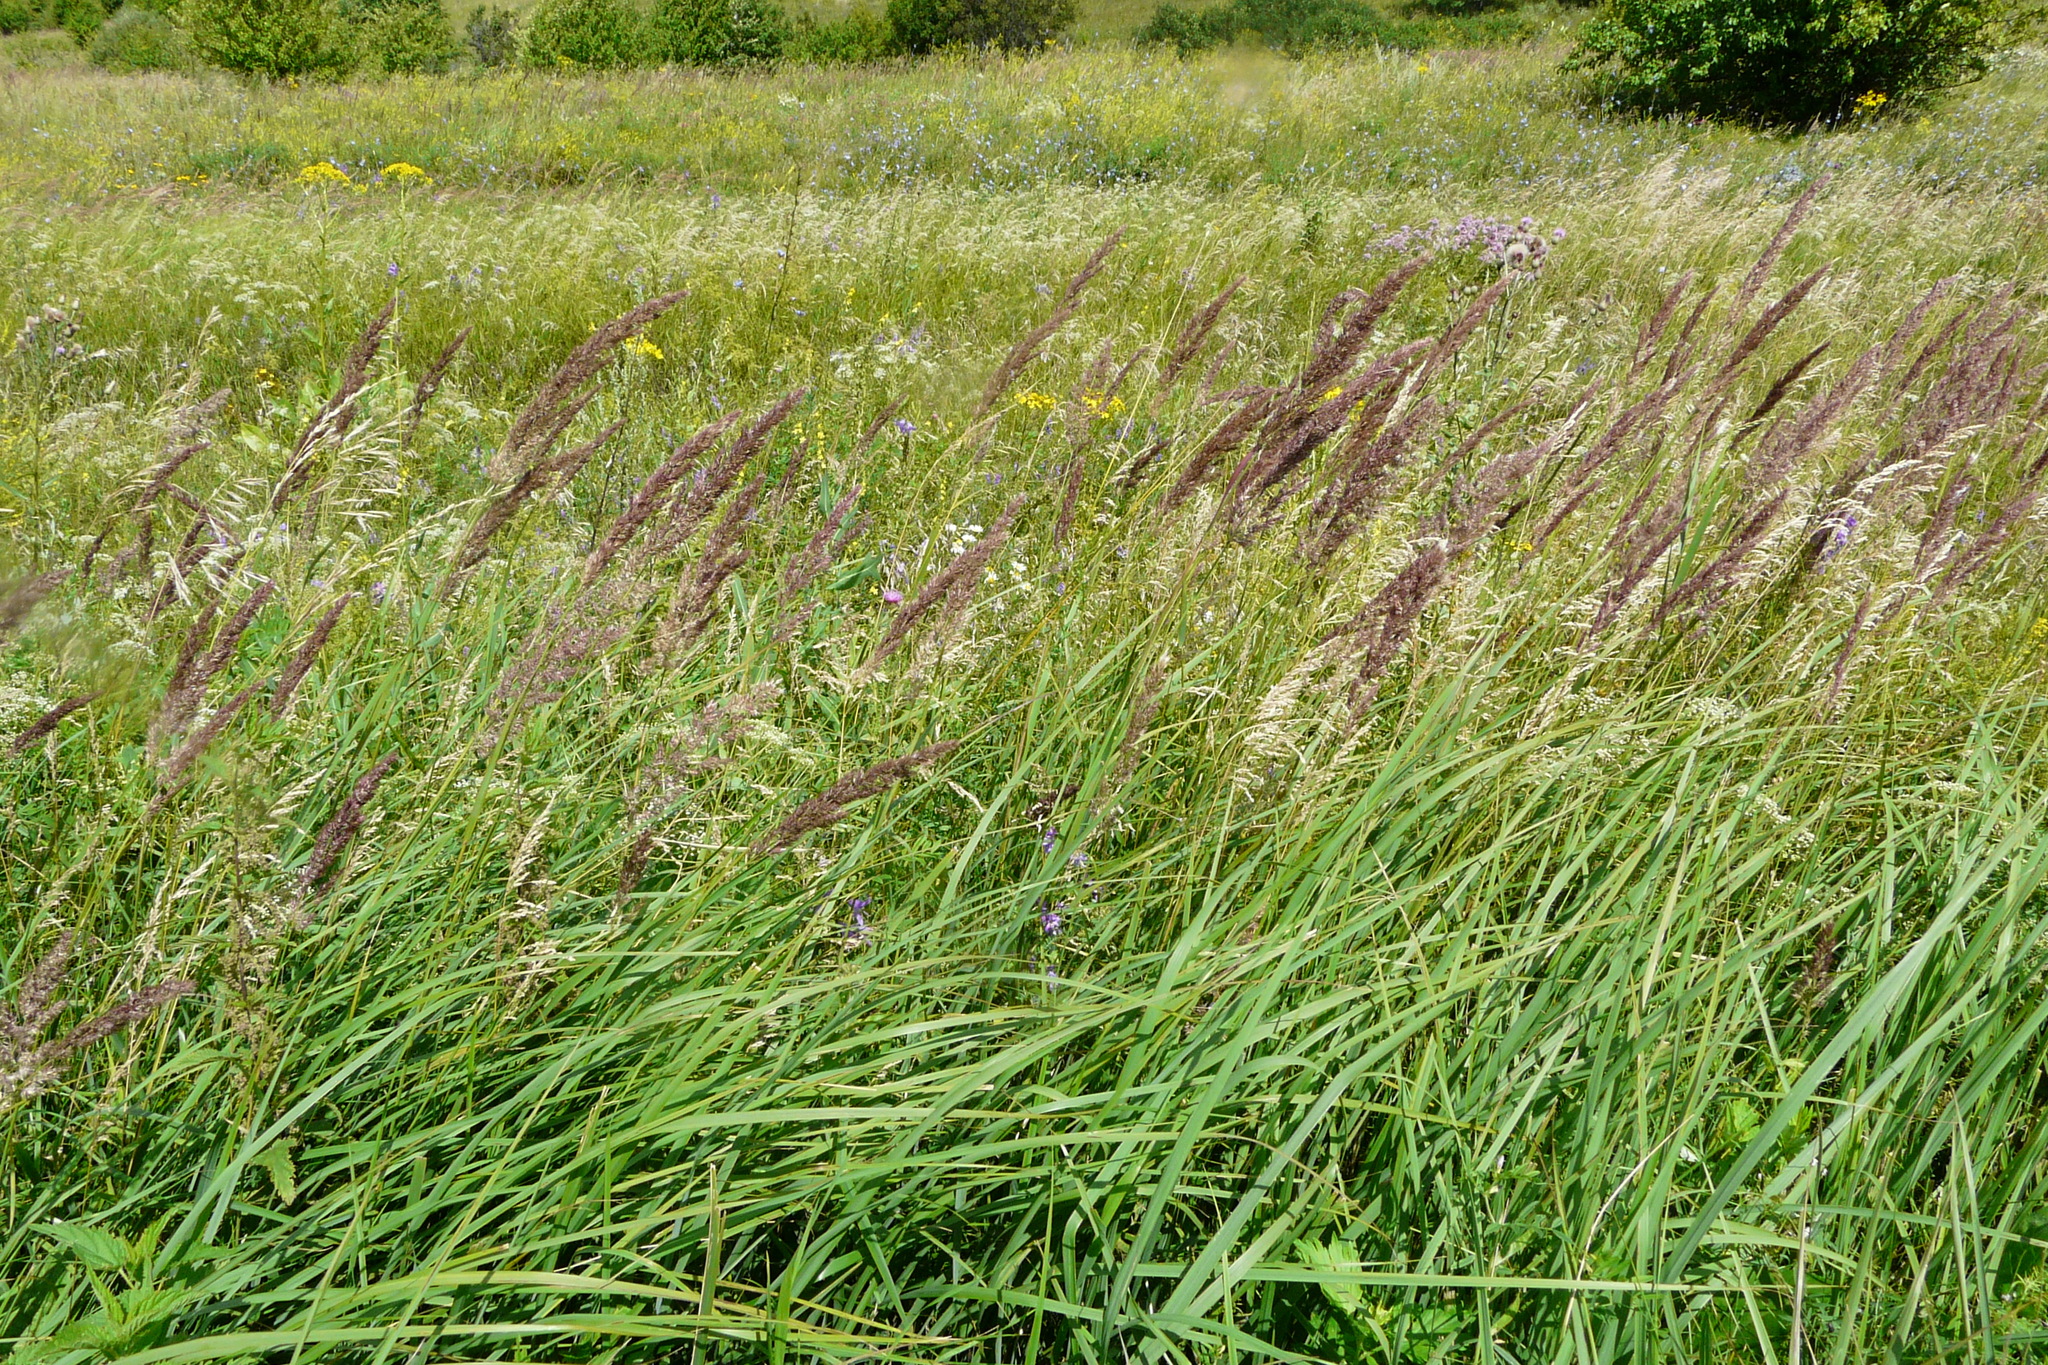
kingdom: Plantae
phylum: Tracheophyta
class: Liliopsida
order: Poales
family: Poaceae
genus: Calamagrostis
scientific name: Calamagrostis epigejos
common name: Wood small-reed
